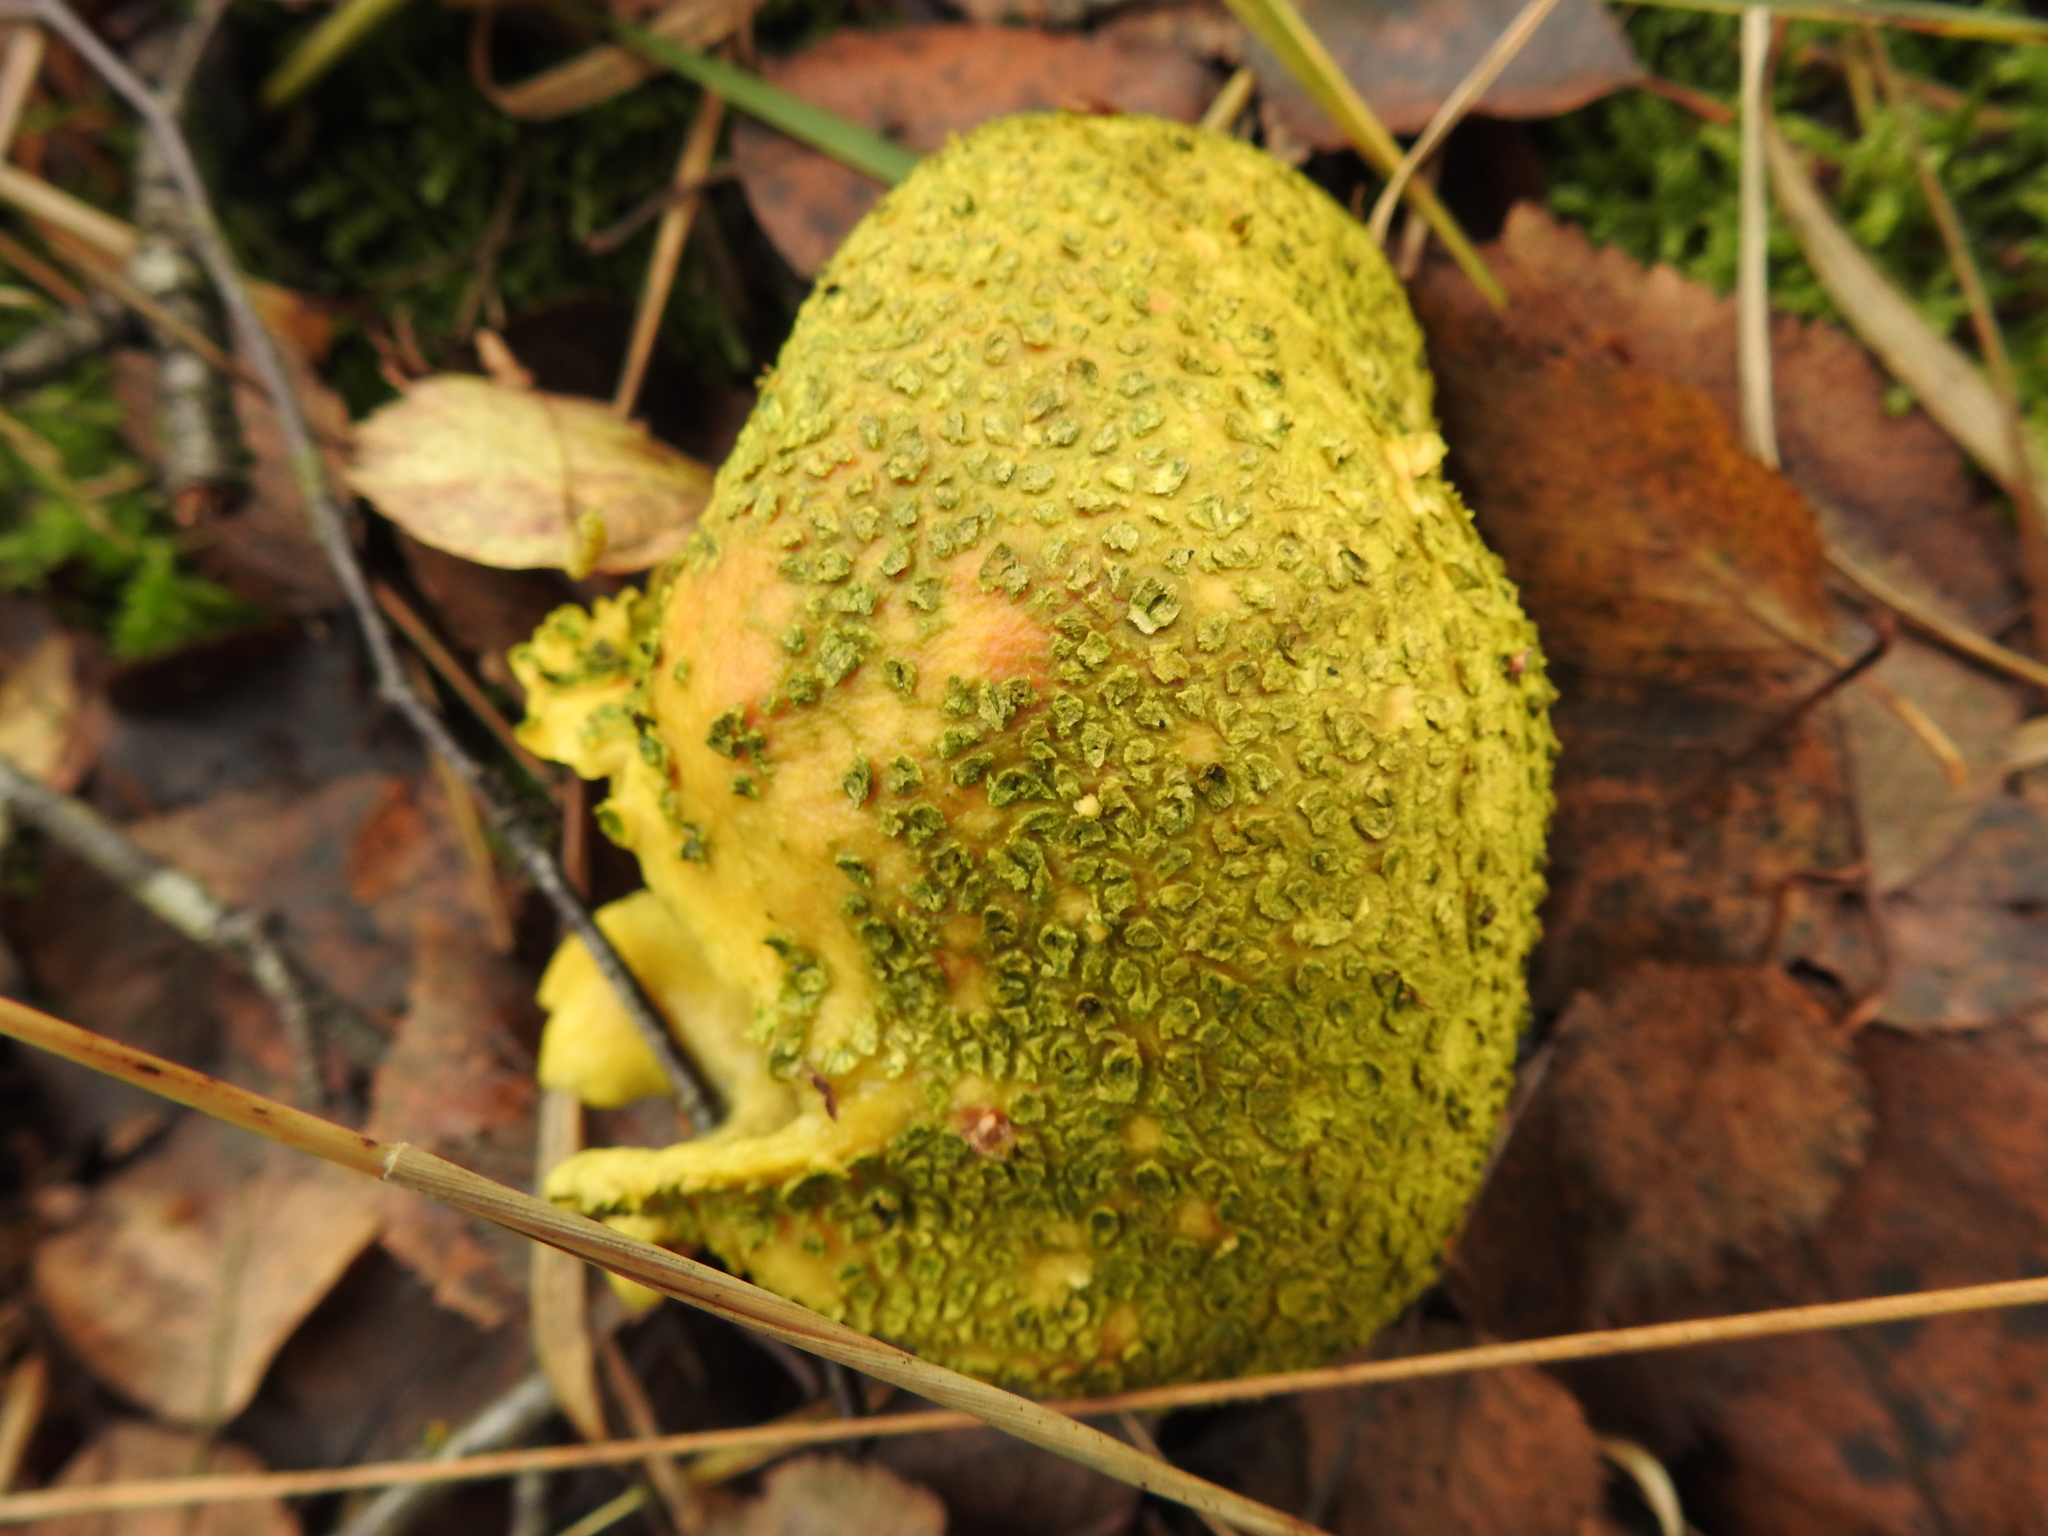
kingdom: Fungi
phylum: Basidiomycota
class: Agaricomycetes
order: Boletales
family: Sclerodermataceae
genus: Scleroderma
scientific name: Scleroderma citrinum
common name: Common earthball
